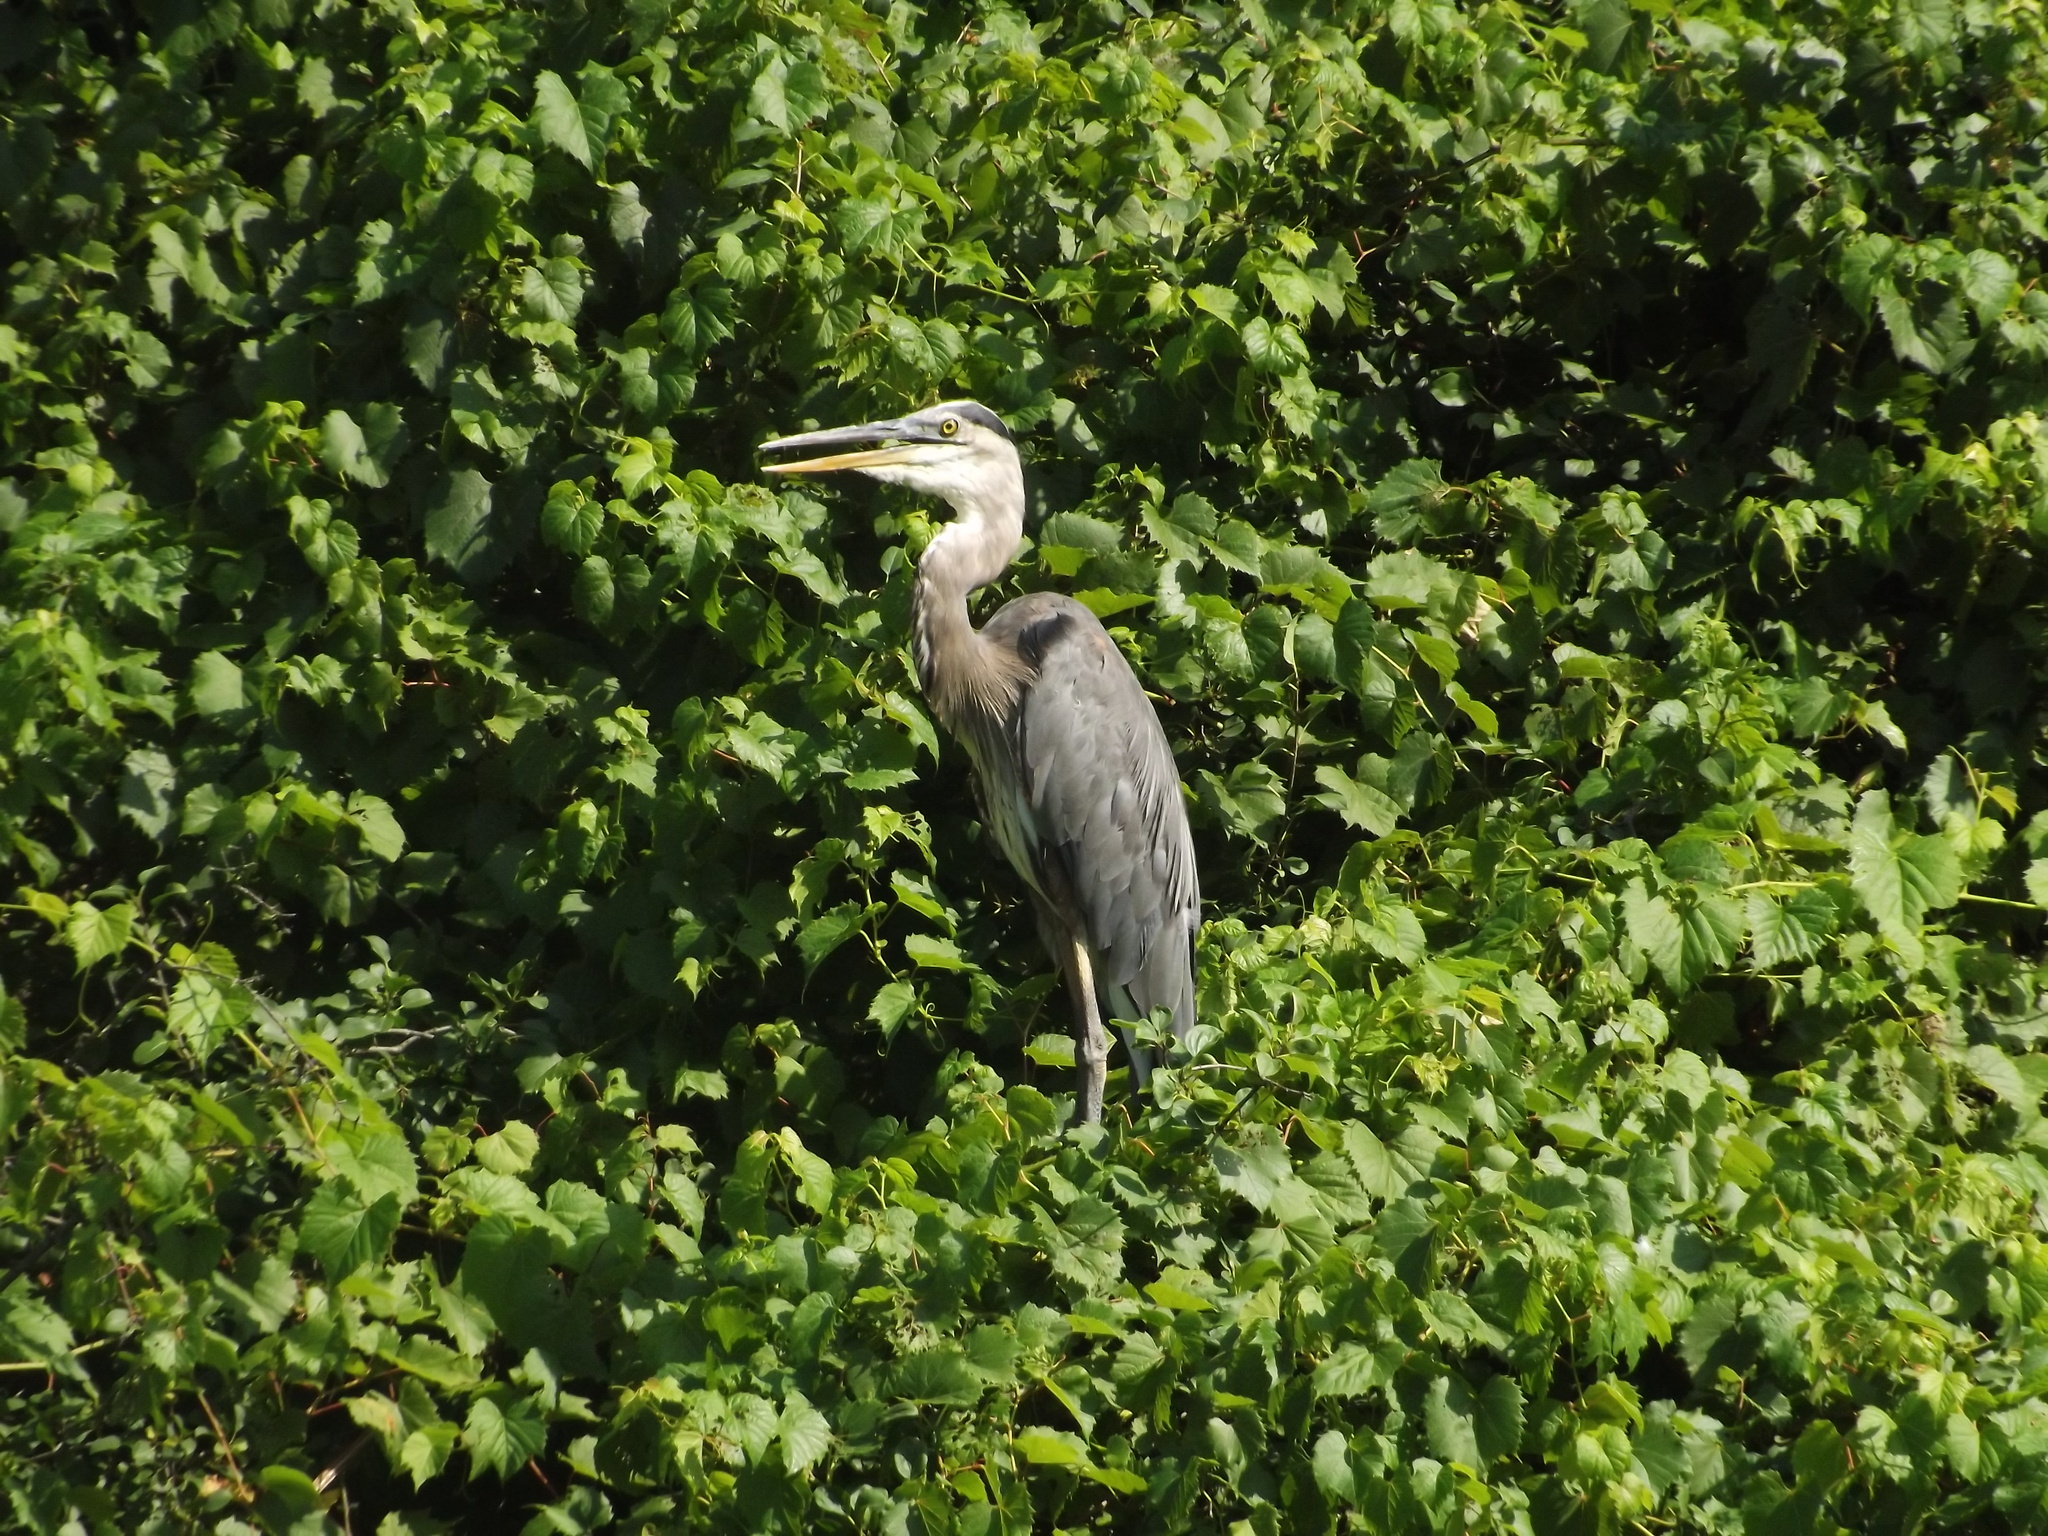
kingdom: Animalia
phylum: Chordata
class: Aves
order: Pelecaniformes
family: Ardeidae
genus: Ardea
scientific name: Ardea herodias
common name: Great blue heron
